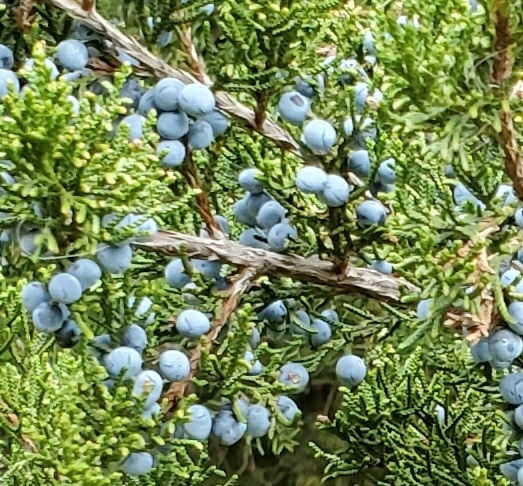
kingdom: Plantae
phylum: Tracheophyta
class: Pinopsida
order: Pinales
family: Cupressaceae
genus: Juniperus
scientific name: Juniperus virginiana
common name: Red juniper
